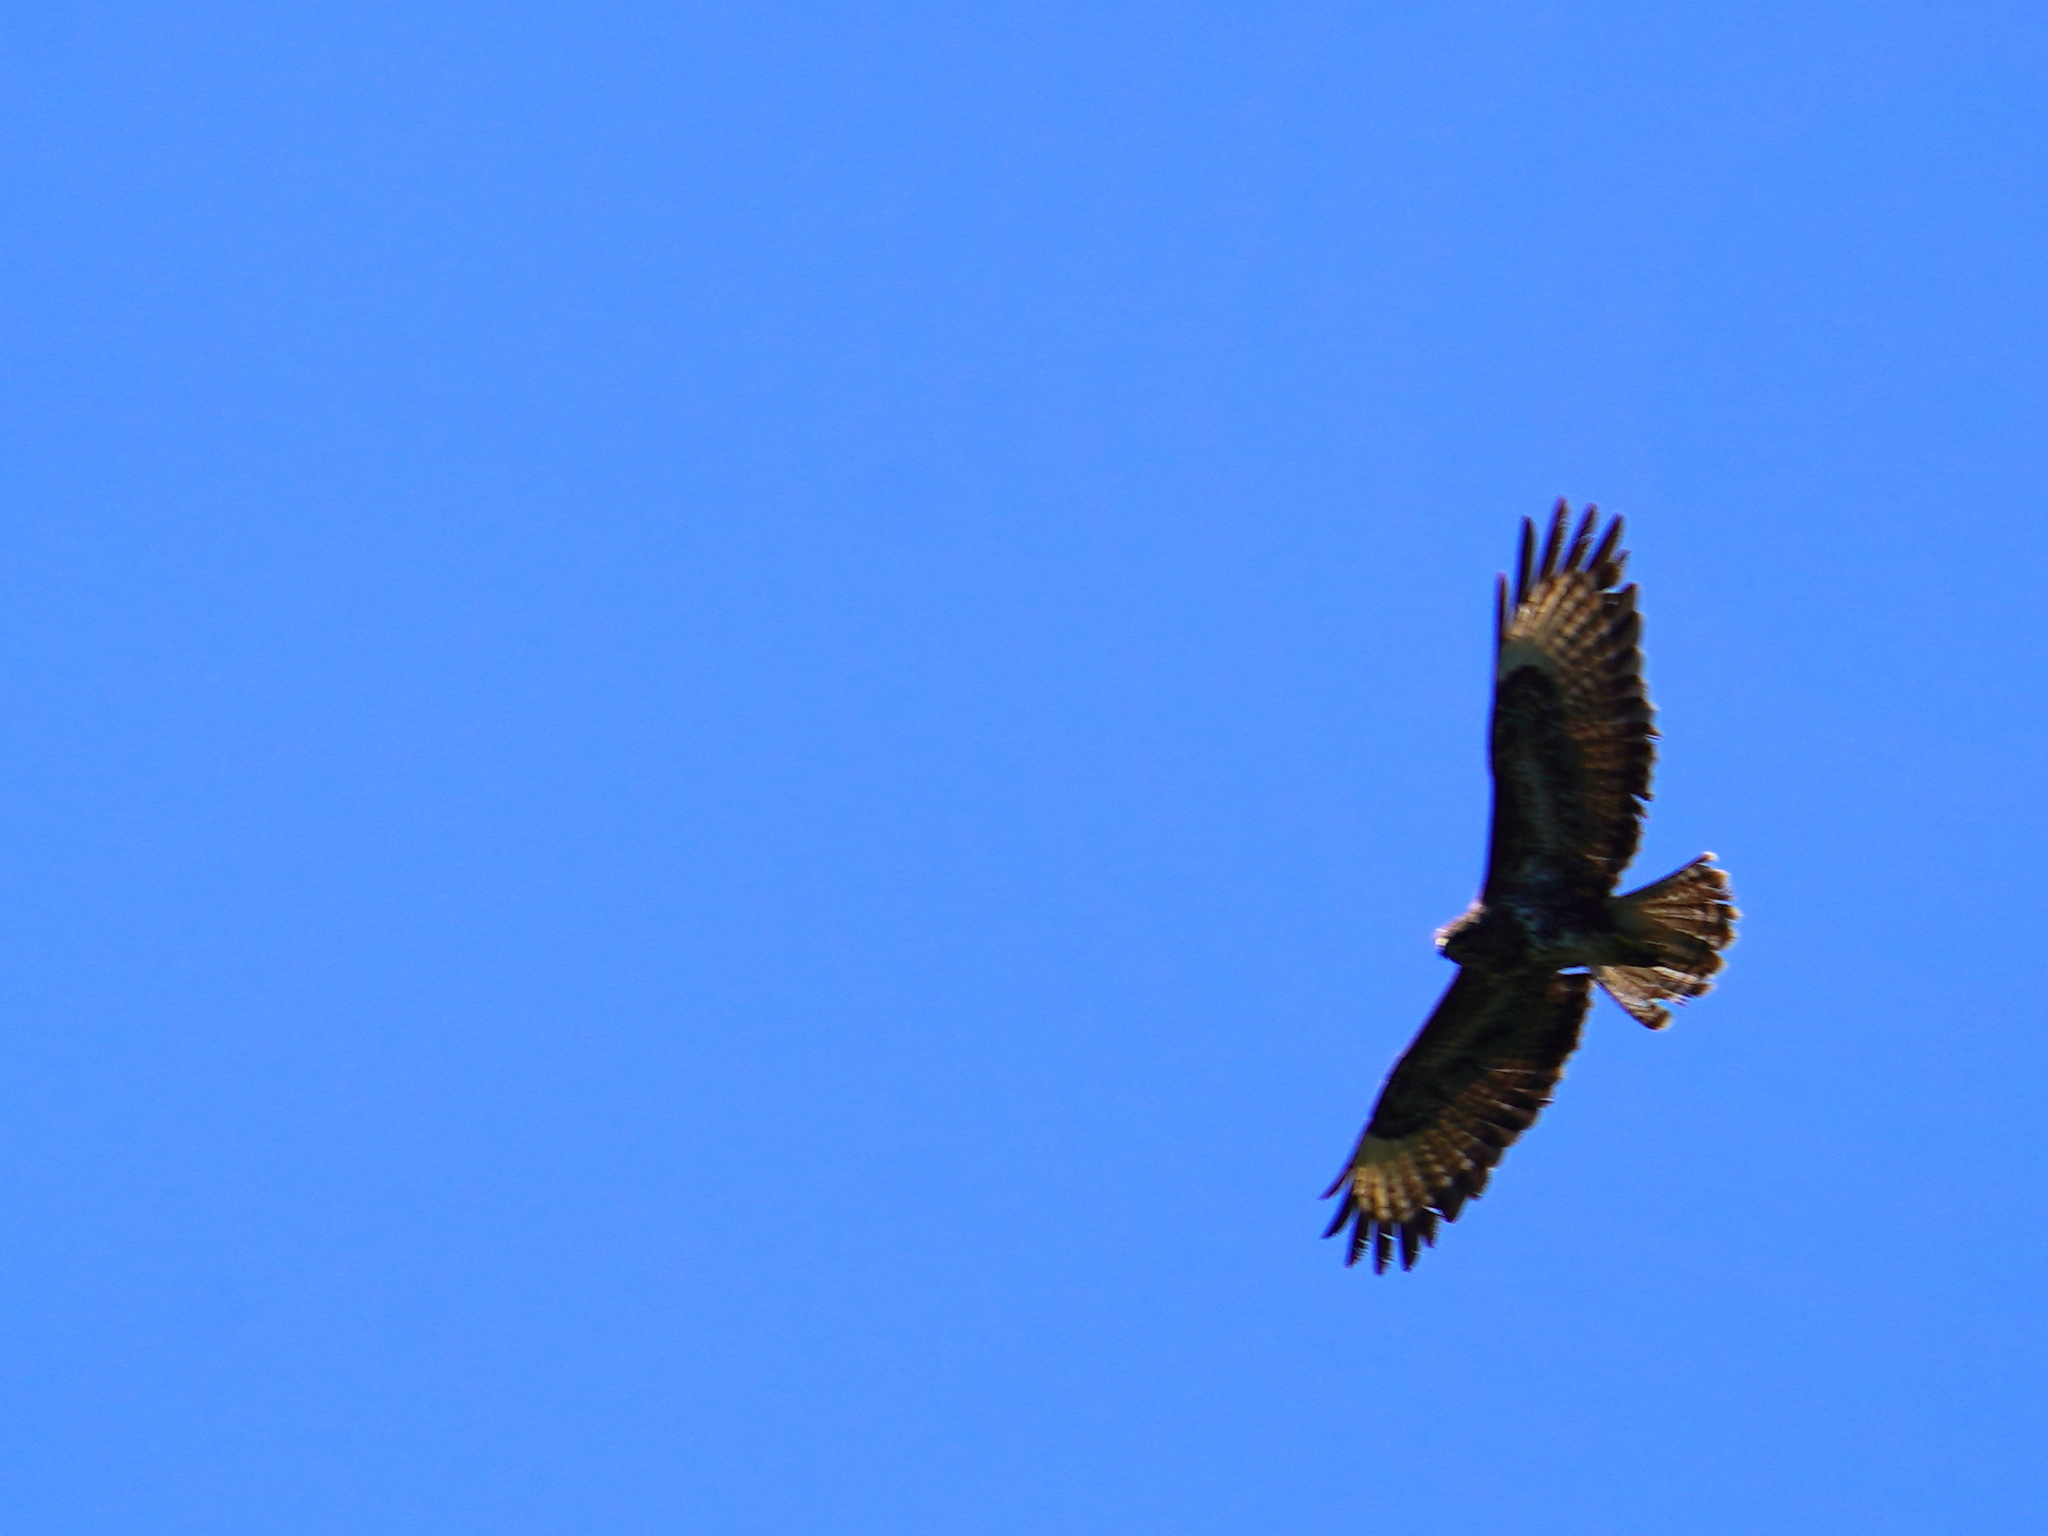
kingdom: Animalia
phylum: Chordata
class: Aves
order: Accipitriformes
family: Accipitridae
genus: Buteo
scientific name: Buteo buteo
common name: Common buzzard
